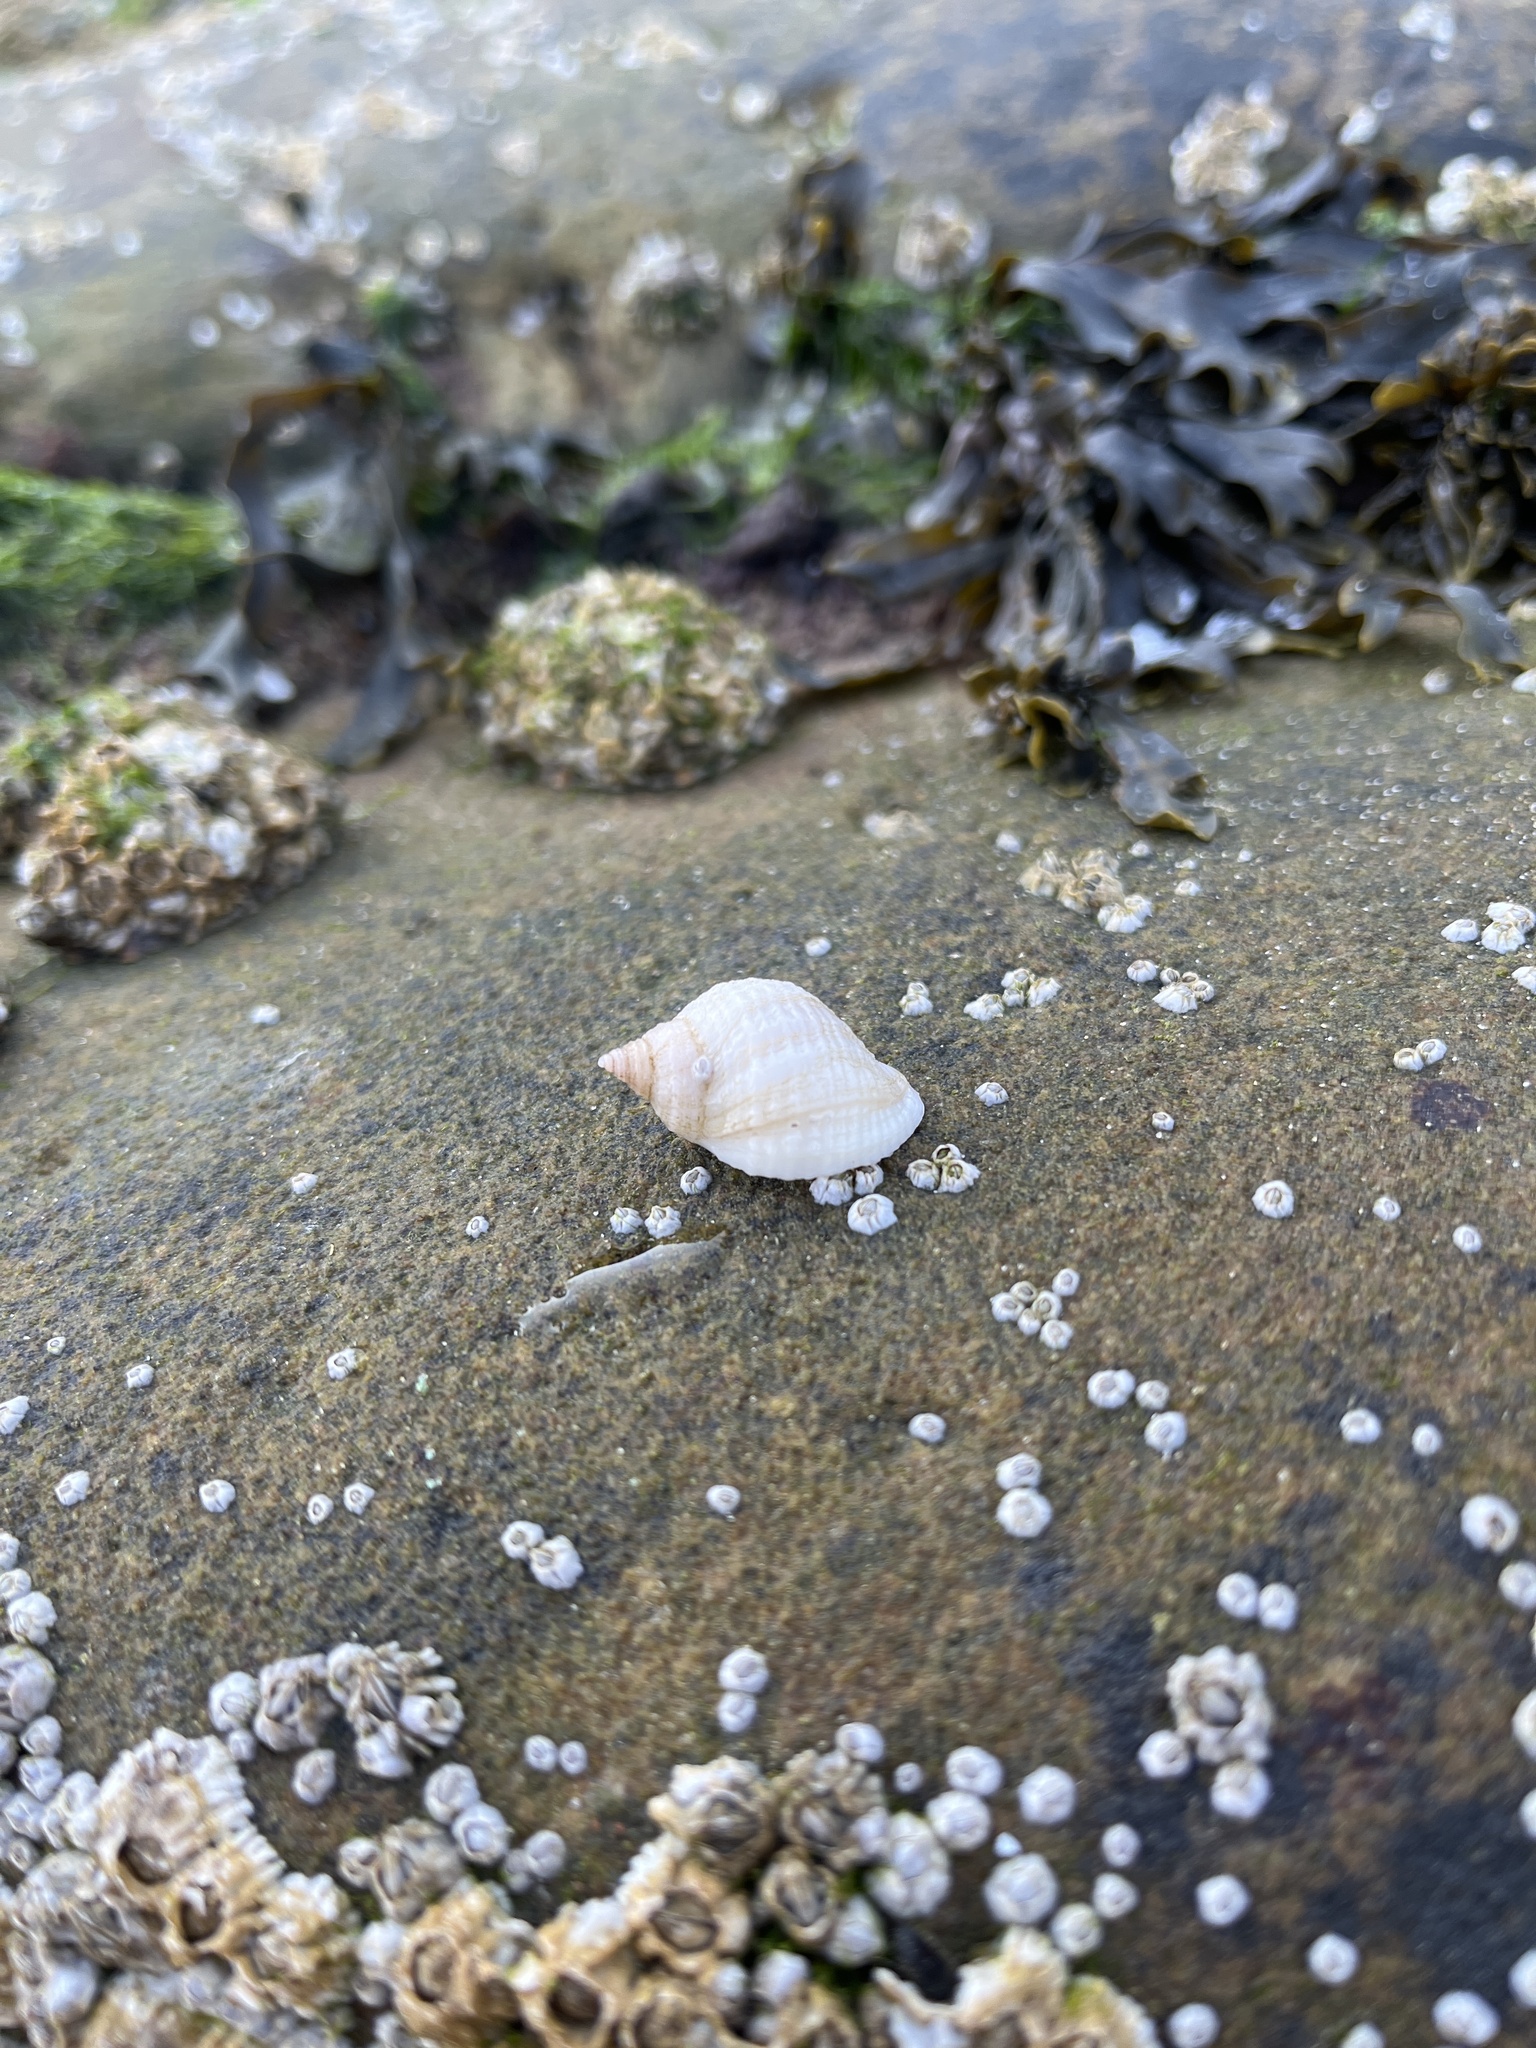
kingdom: Animalia
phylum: Mollusca
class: Gastropoda
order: Neogastropoda
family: Muricidae
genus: Nucella
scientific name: Nucella lapillus
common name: Dog whelk
